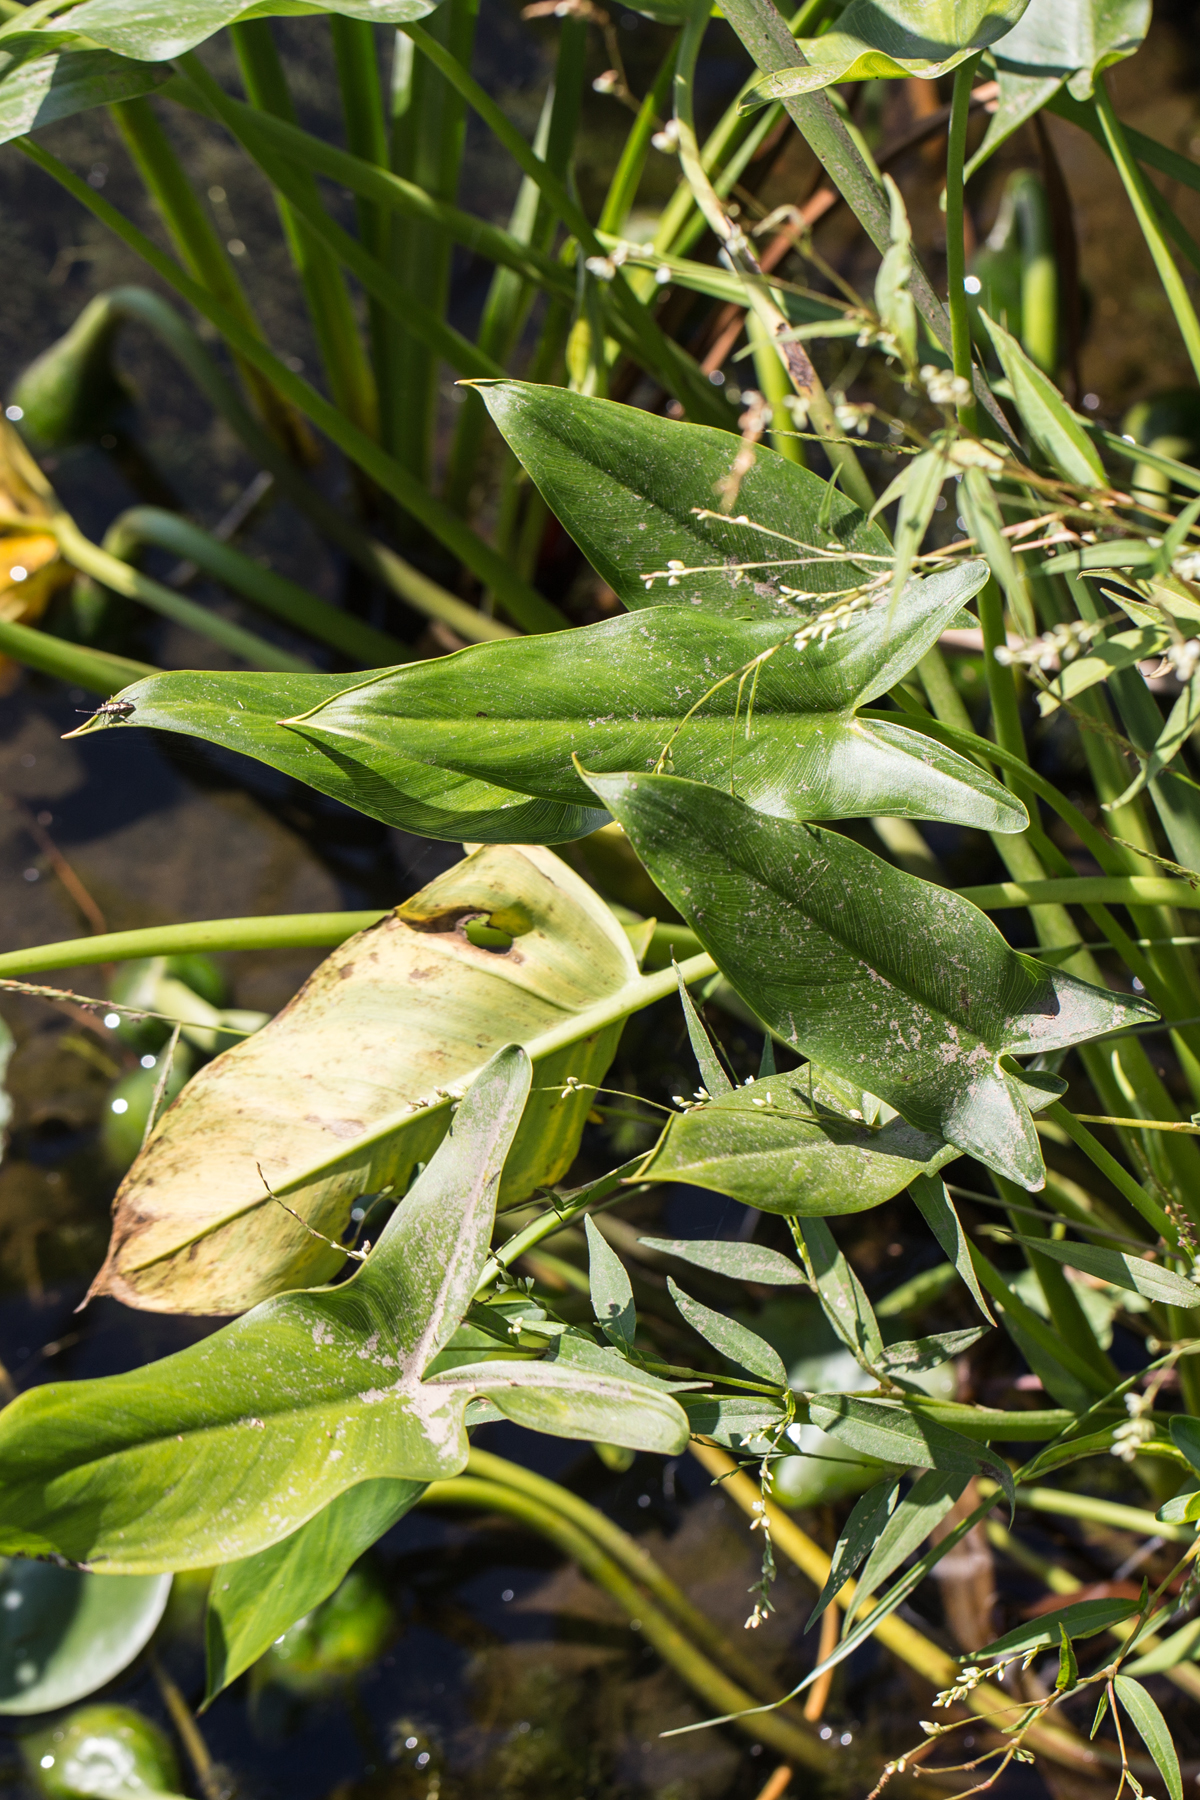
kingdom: Plantae
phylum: Tracheophyta
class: Liliopsida
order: Alismatales
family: Araceae
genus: Peltandra
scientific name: Peltandra virginica
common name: Arrow arum
